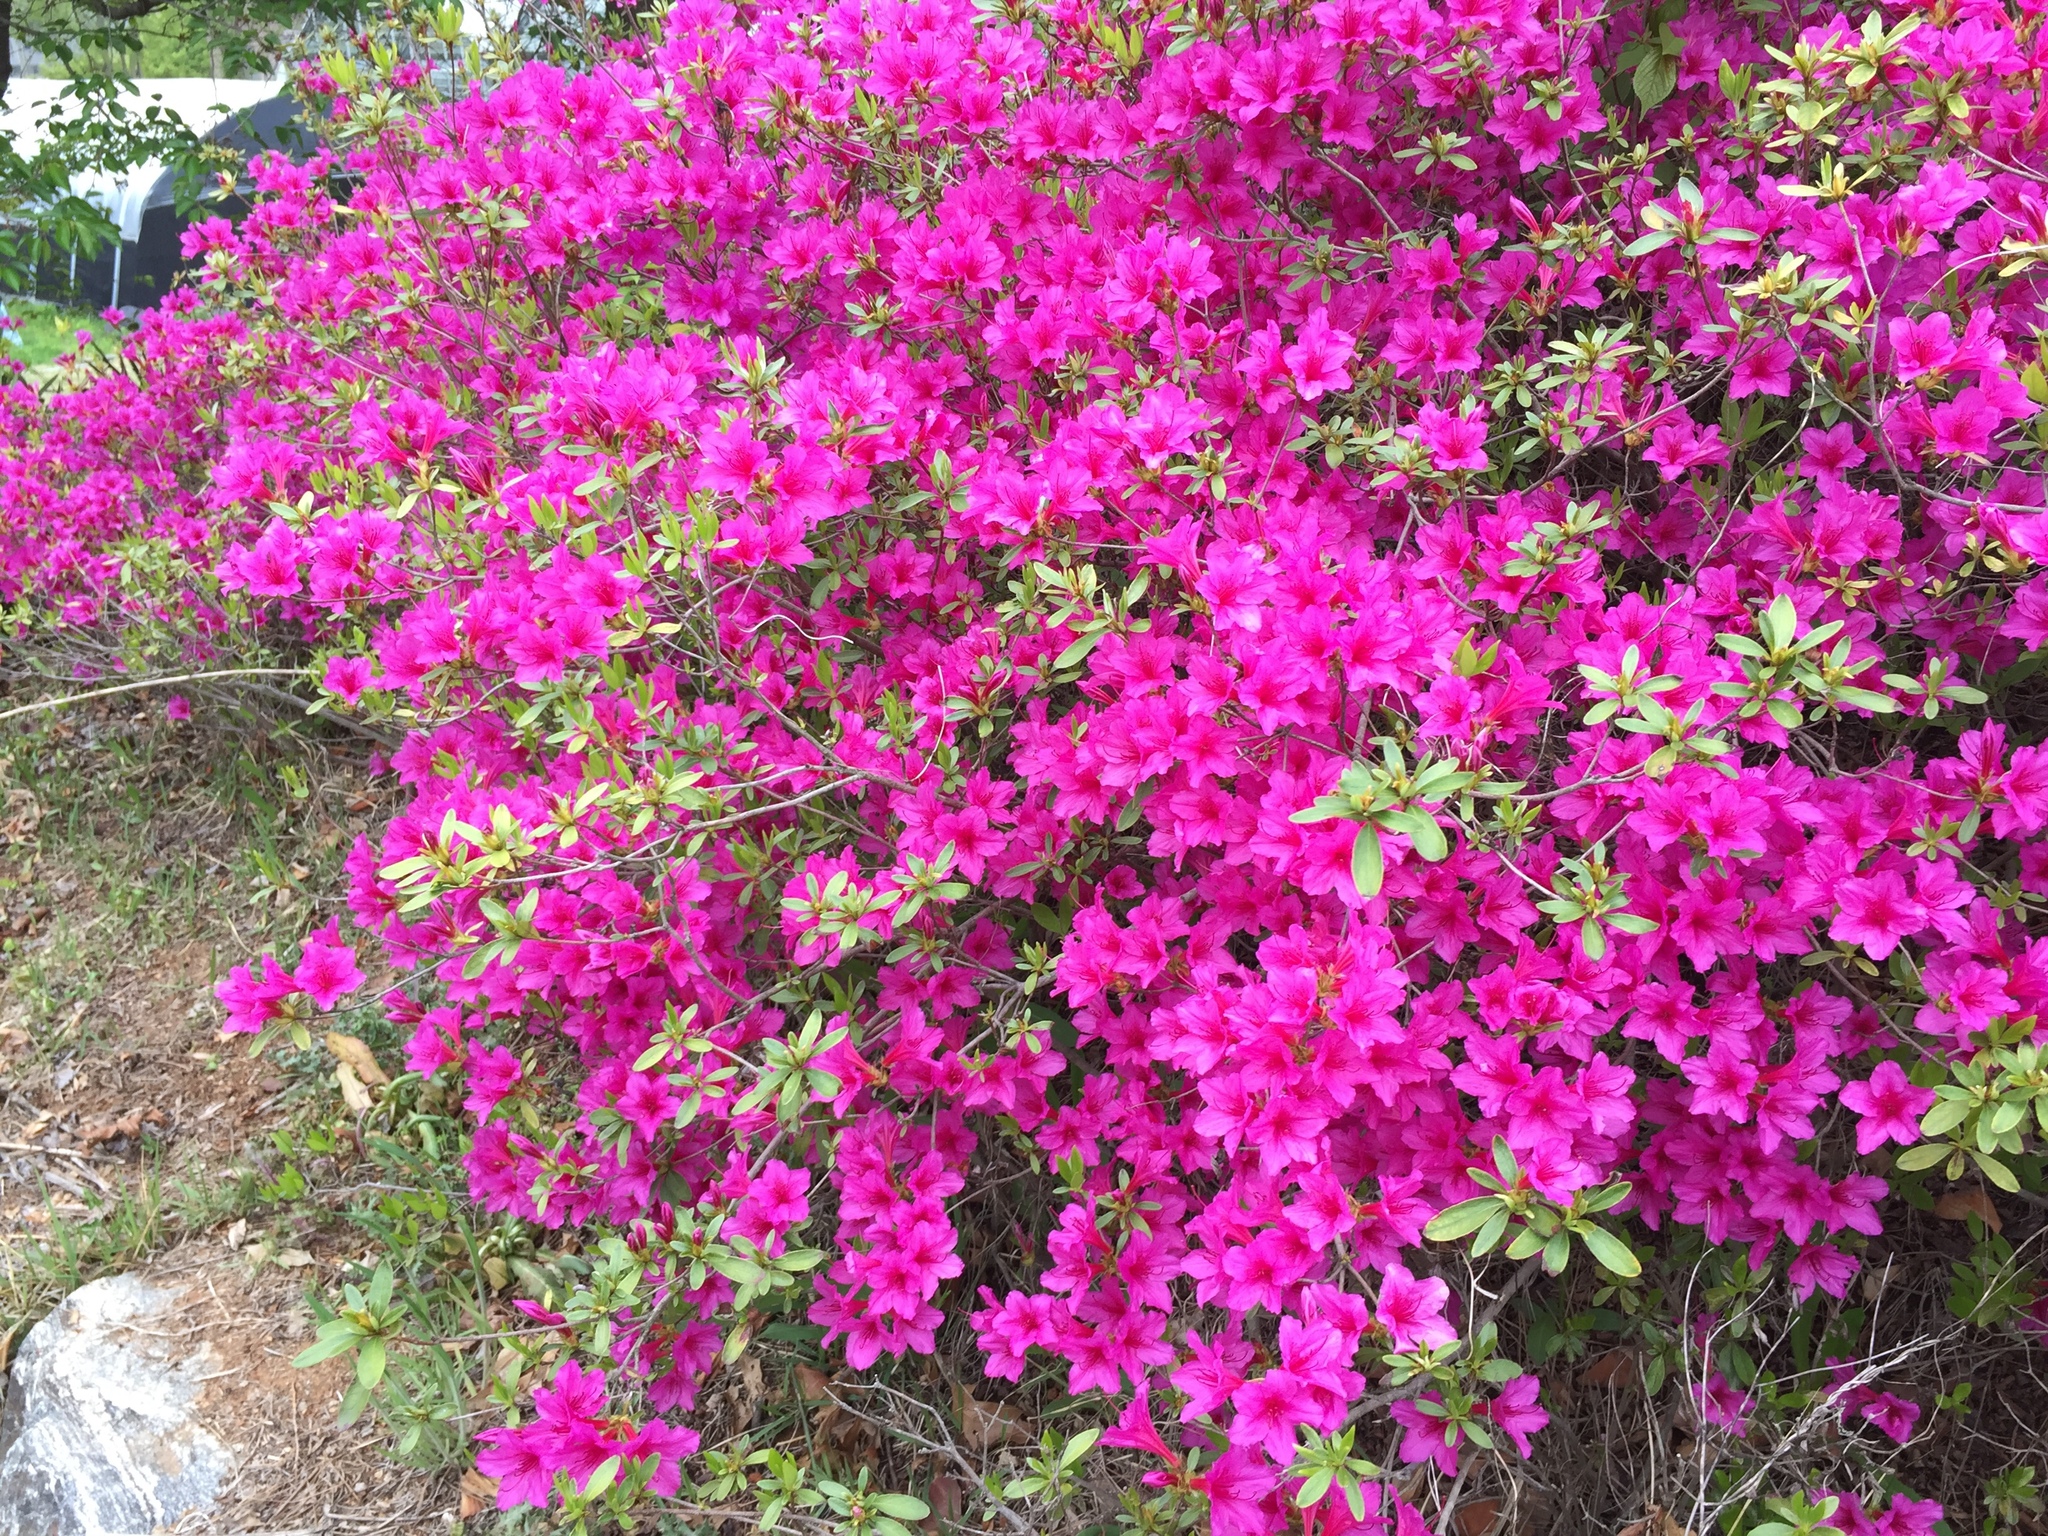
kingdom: Plantae
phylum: Tracheophyta
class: Magnoliopsida
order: Ericales
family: Ericaceae
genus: Rhododendron
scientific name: Rhododendron hybridum
